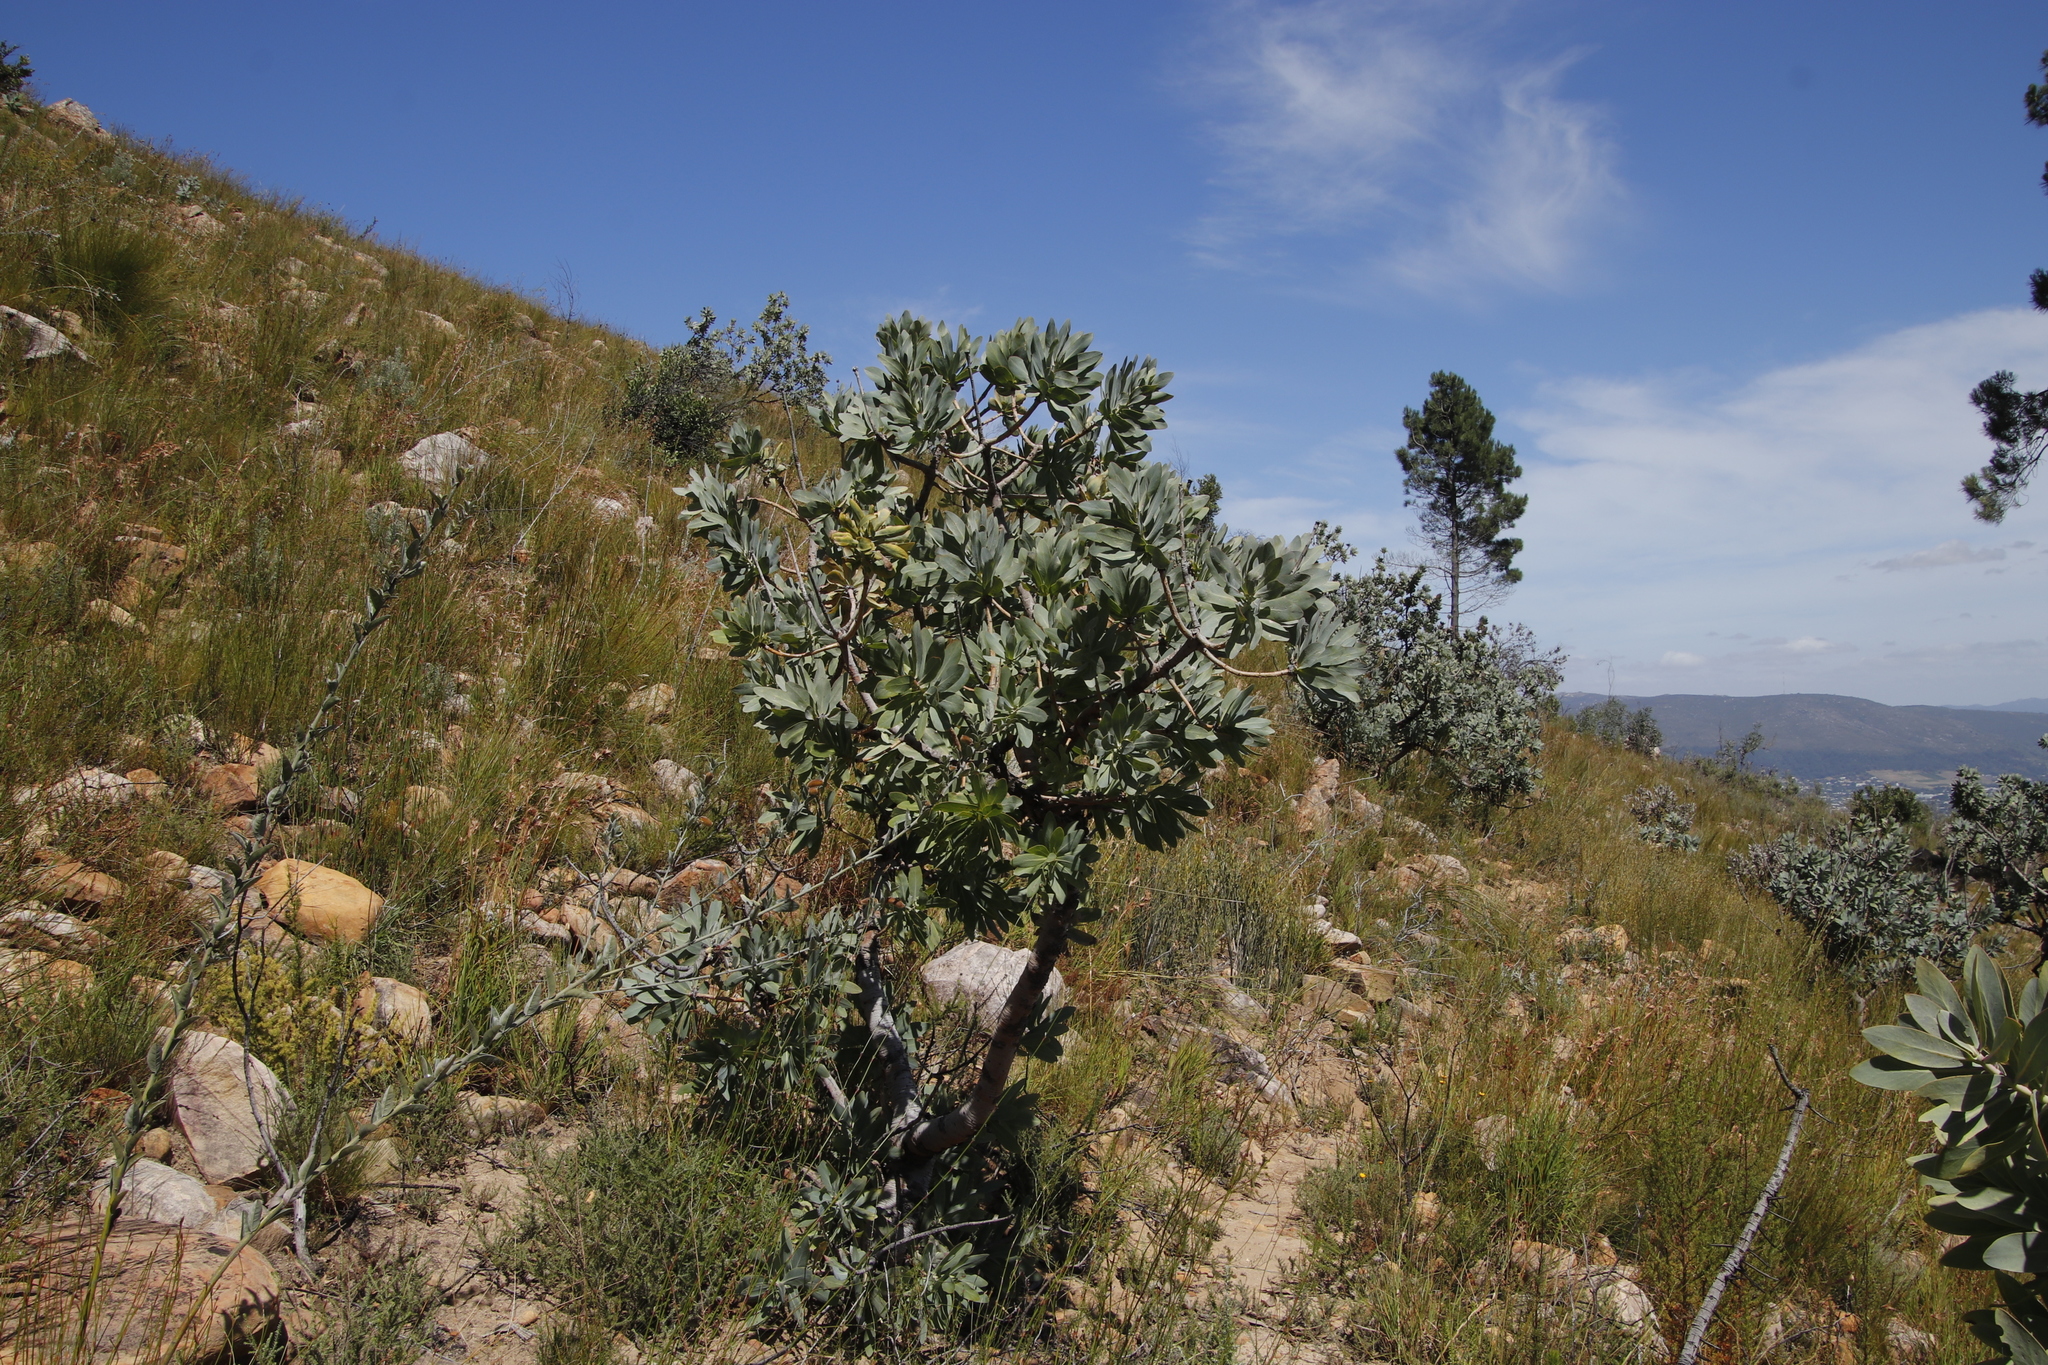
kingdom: Plantae
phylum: Tracheophyta
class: Magnoliopsida
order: Proteales
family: Proteaceae
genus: Protea
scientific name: Protea nitida
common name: Tree protea
